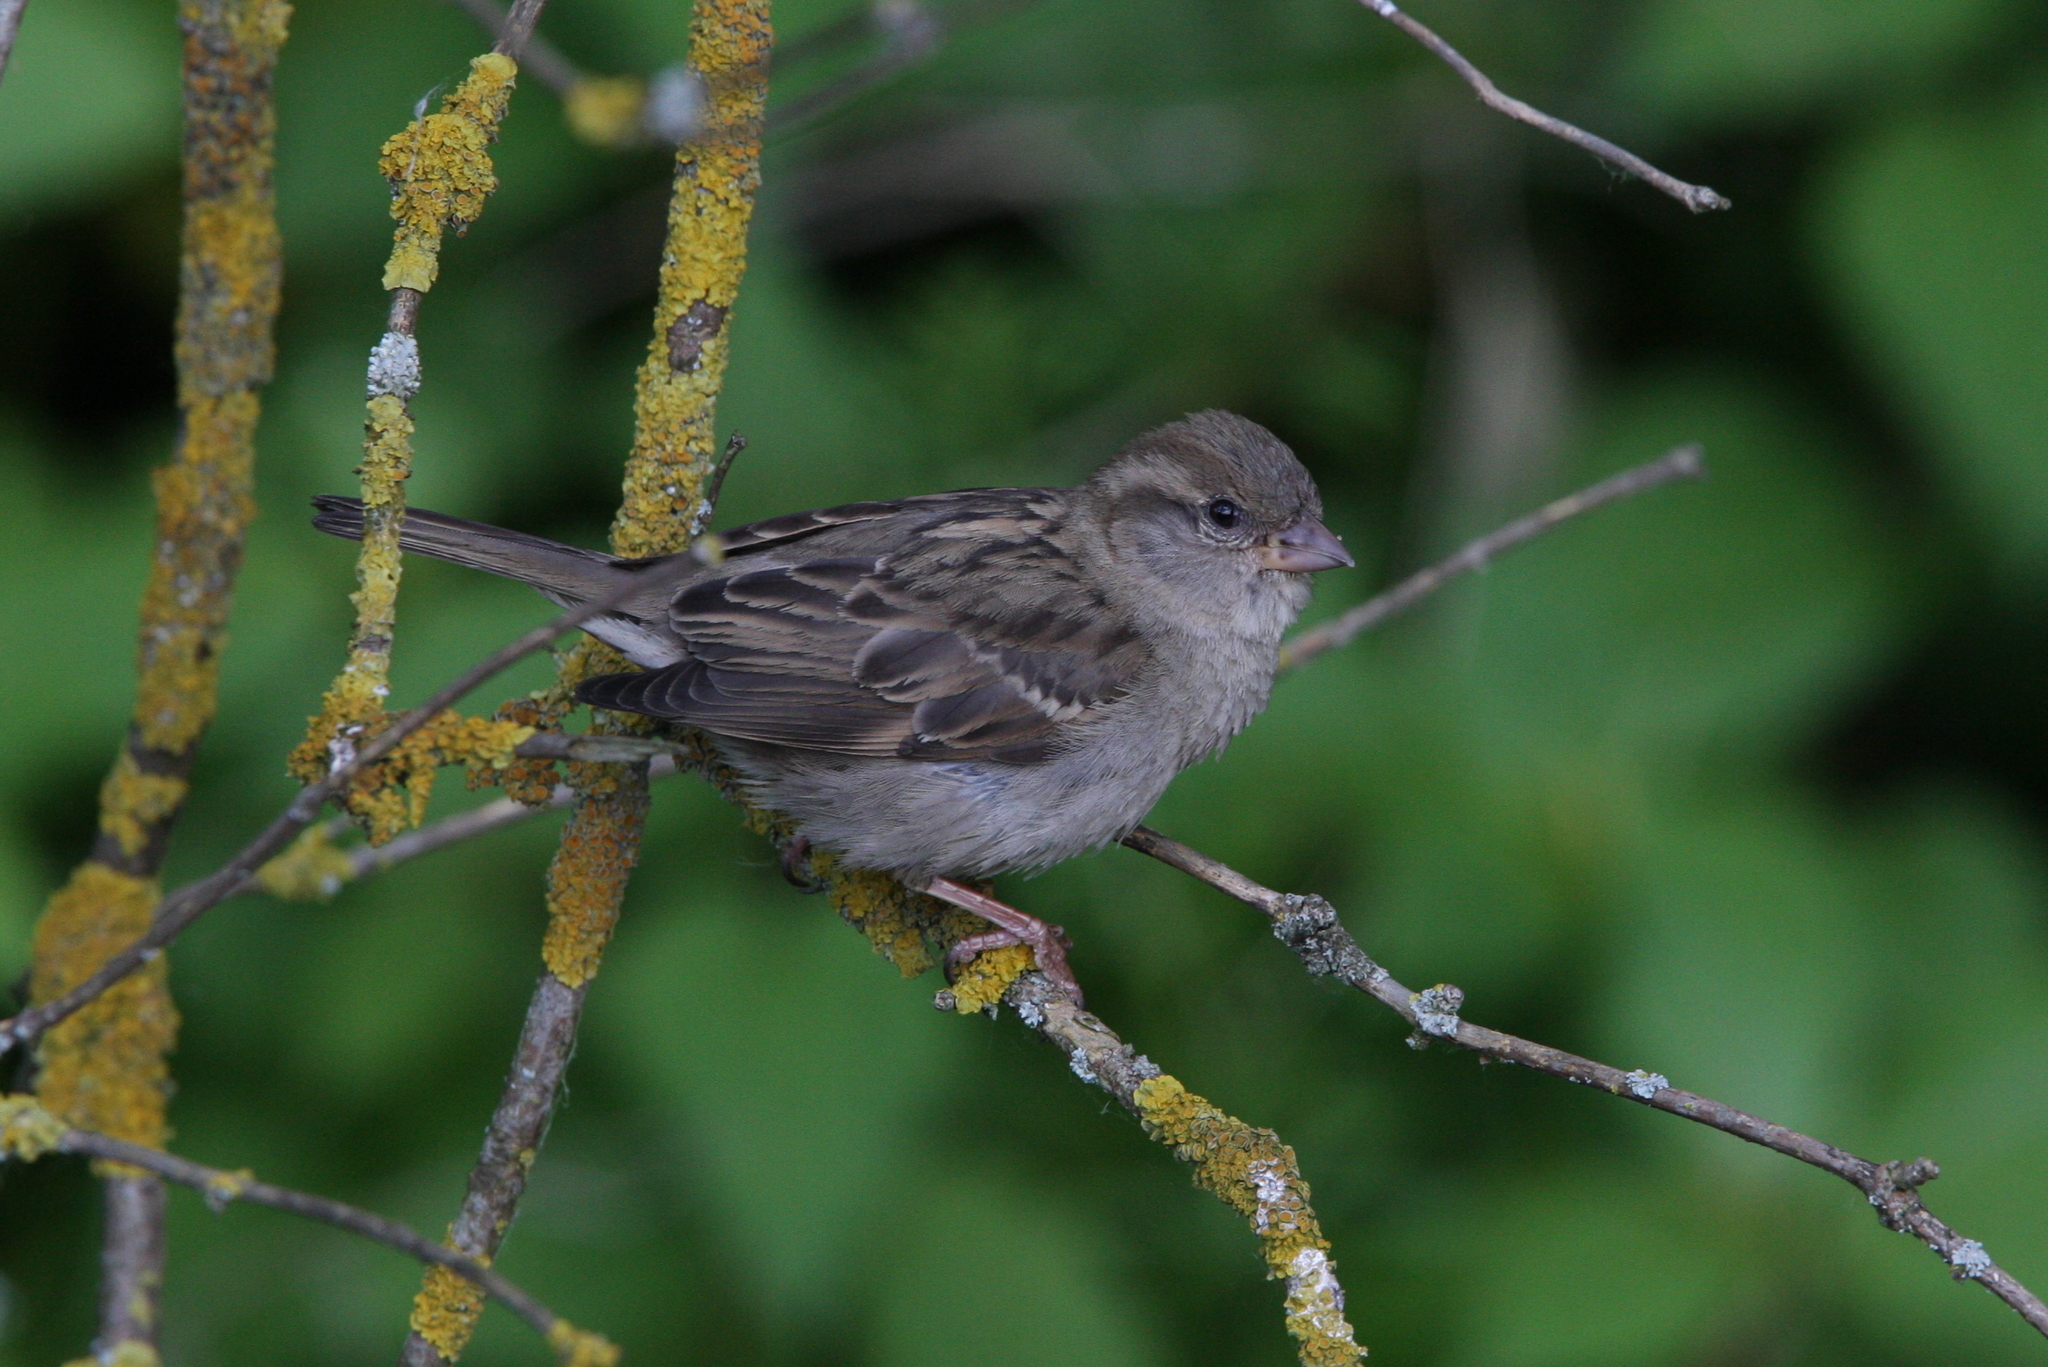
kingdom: Animalia
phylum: Chordata
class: Aves
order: Passeriformes
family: Passeridae
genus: Passer
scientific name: Passer domesticus
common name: House sparrow
